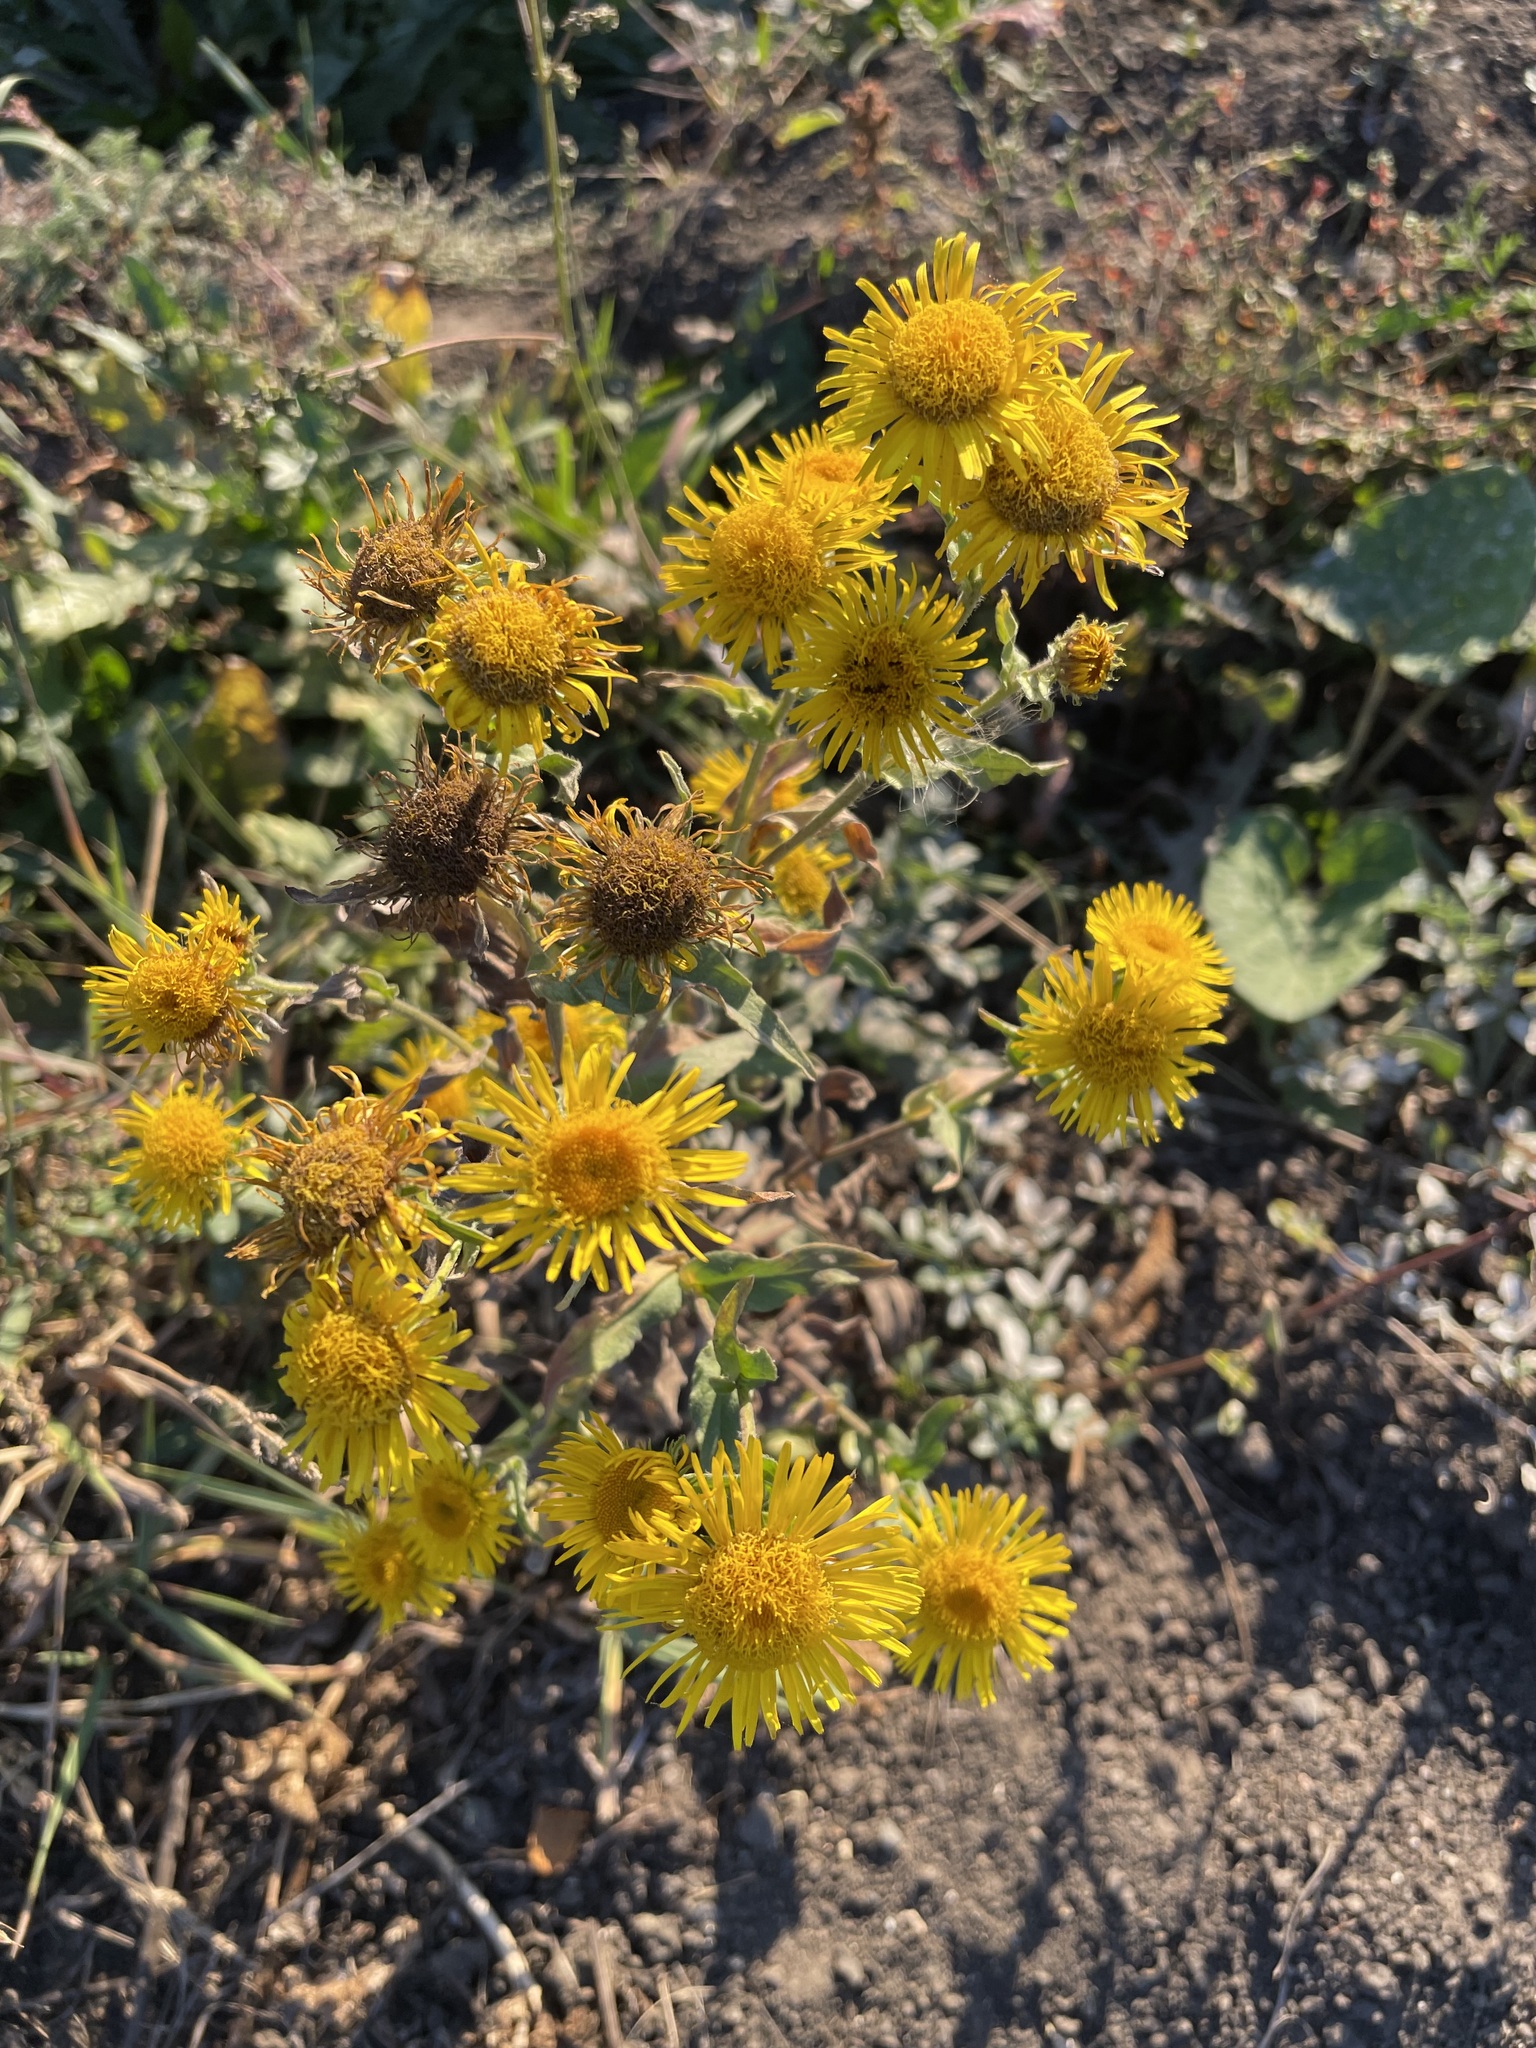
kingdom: Plantae
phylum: Tracheophyta
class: Magnoliopsida
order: Asterales
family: Asteraceae
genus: Pentanema
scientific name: Pentanema britannicum
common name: British elecampane
